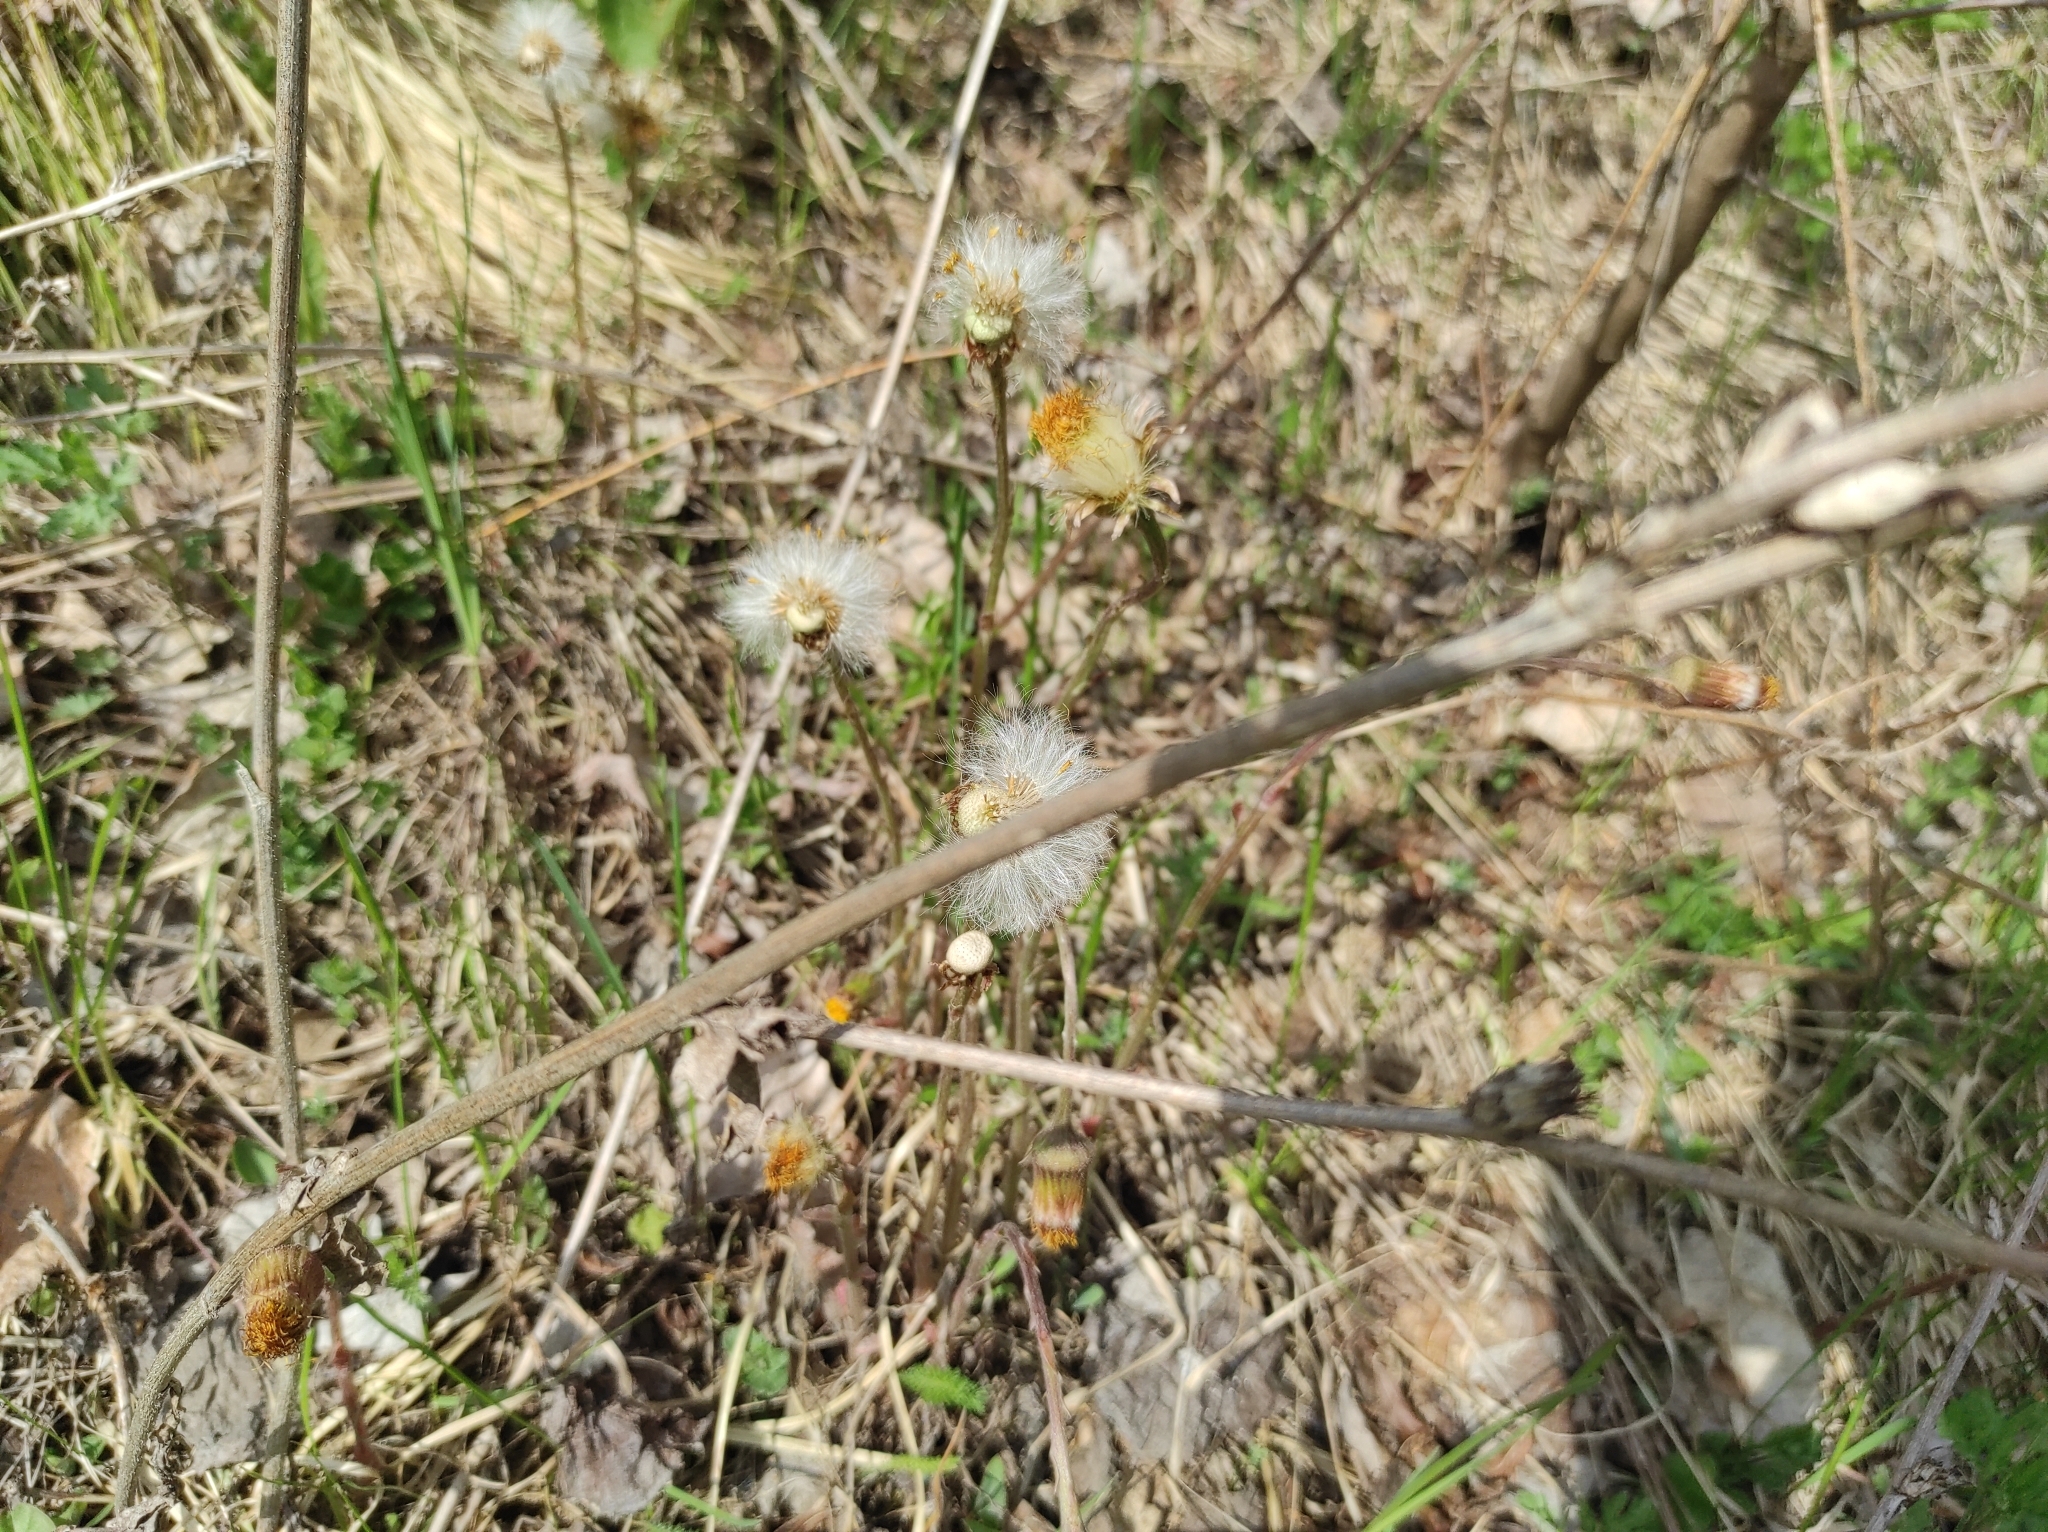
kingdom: Plantae
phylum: Tracheophyta
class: Magnoliopsida
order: Asterales
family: Asteraceae
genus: Tussilago
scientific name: Tussilago farfara
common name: Coltsfoot
